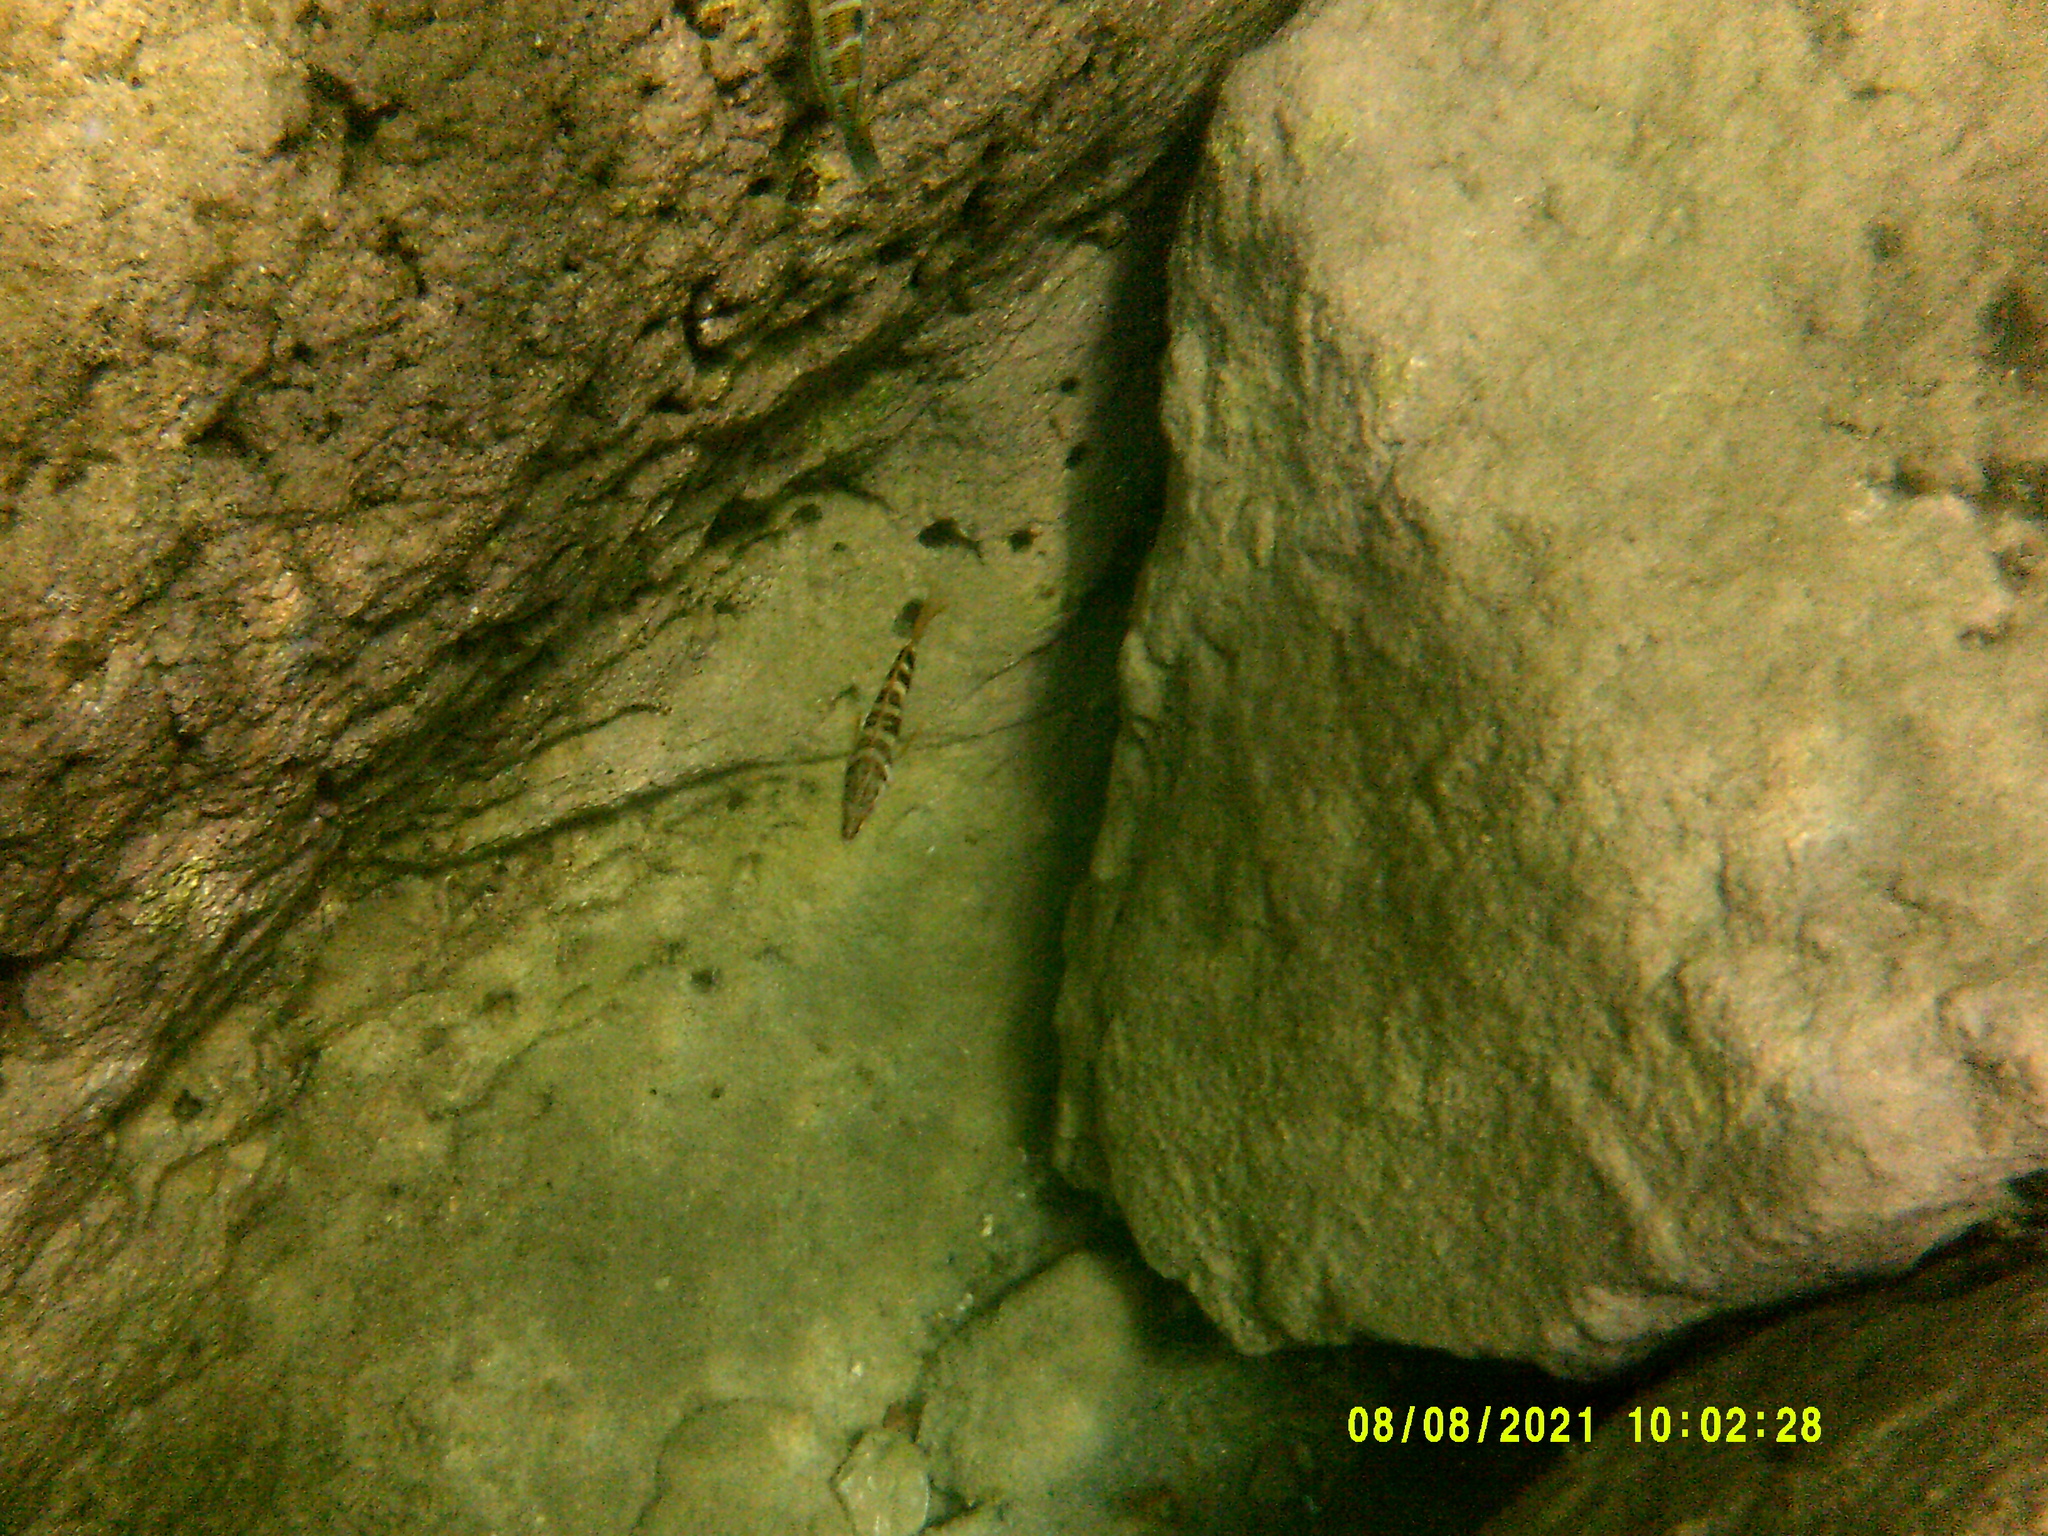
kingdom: Animalia
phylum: Chordata
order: Perciformes
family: Serranidae
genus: Serranus
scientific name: Serranus scriba
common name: Painted comber
